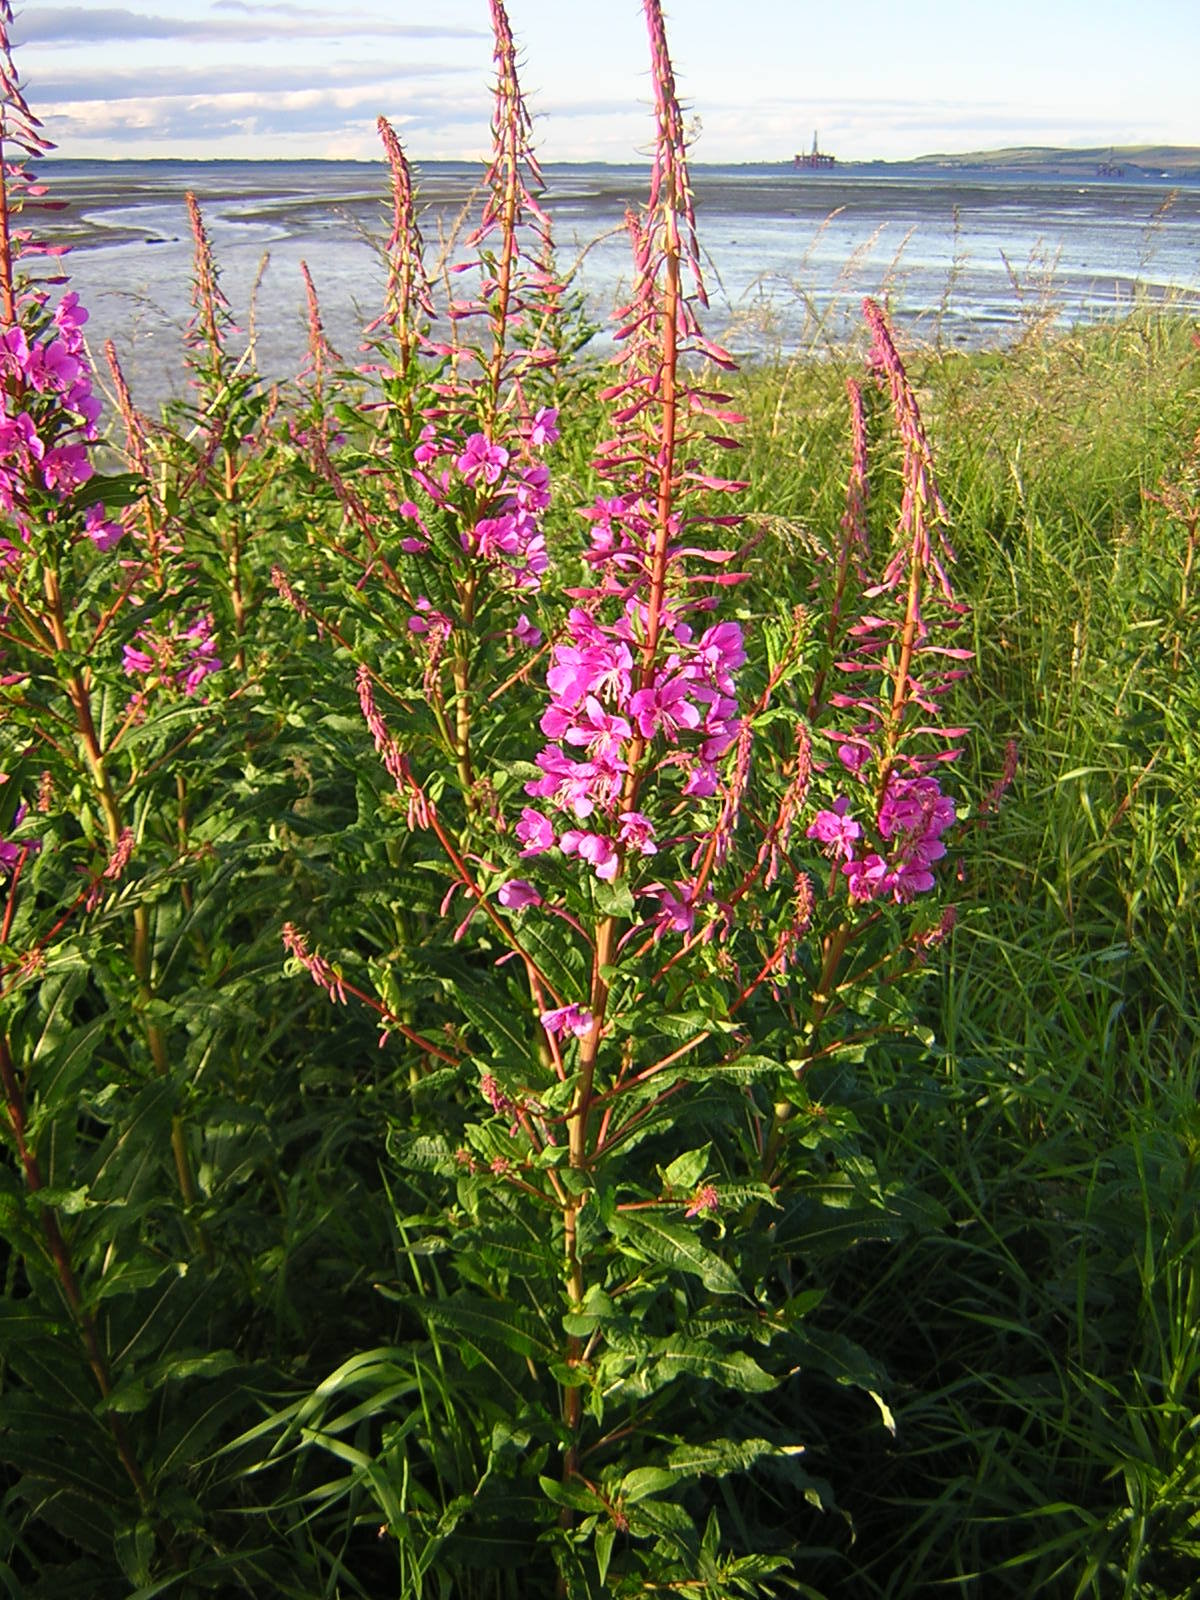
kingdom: Plantae
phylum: Tracheophyta
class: Magnoliopsida
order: Myrtales
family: Onagraceae
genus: Chamaenerion
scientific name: Chamaenerion angustifolium
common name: Fireweed
